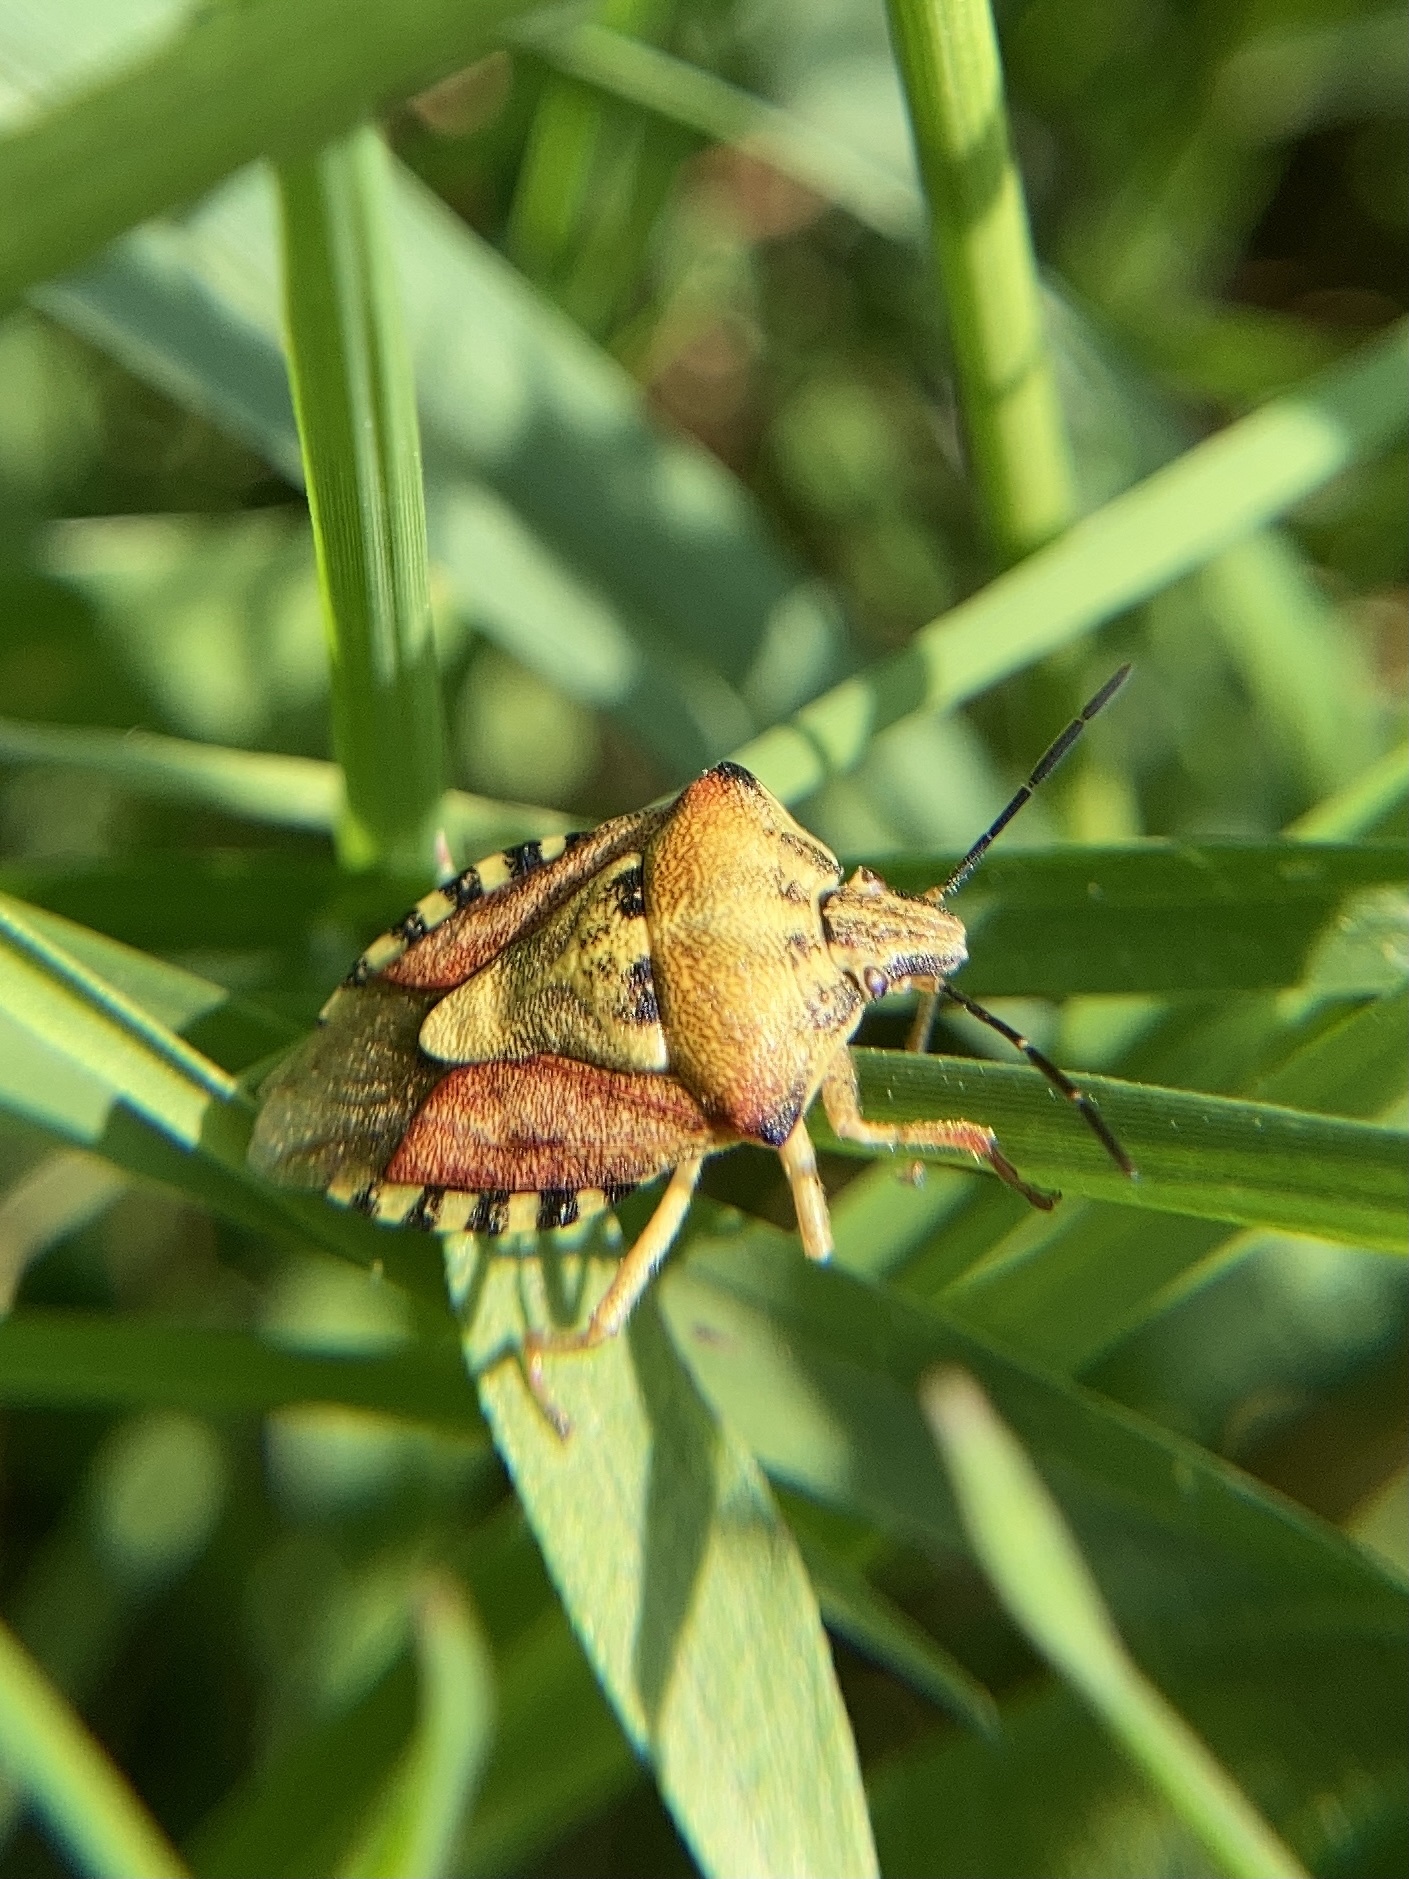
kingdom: Animalia
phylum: Arthropoda
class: Insecta
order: Hemiptera
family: Pentatomidae
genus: Carpocoris
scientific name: Carpocoris purpureipennis
